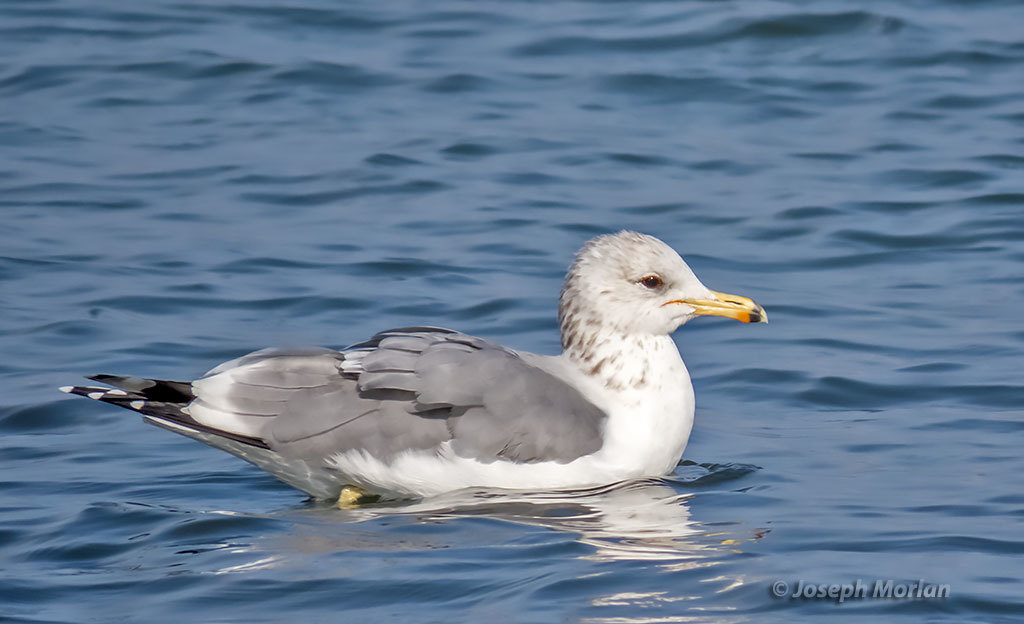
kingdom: Animalia
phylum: Chordata
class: Aves
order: Charadriiformes
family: Laridae
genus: Larus
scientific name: Larus californicus
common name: California gull
